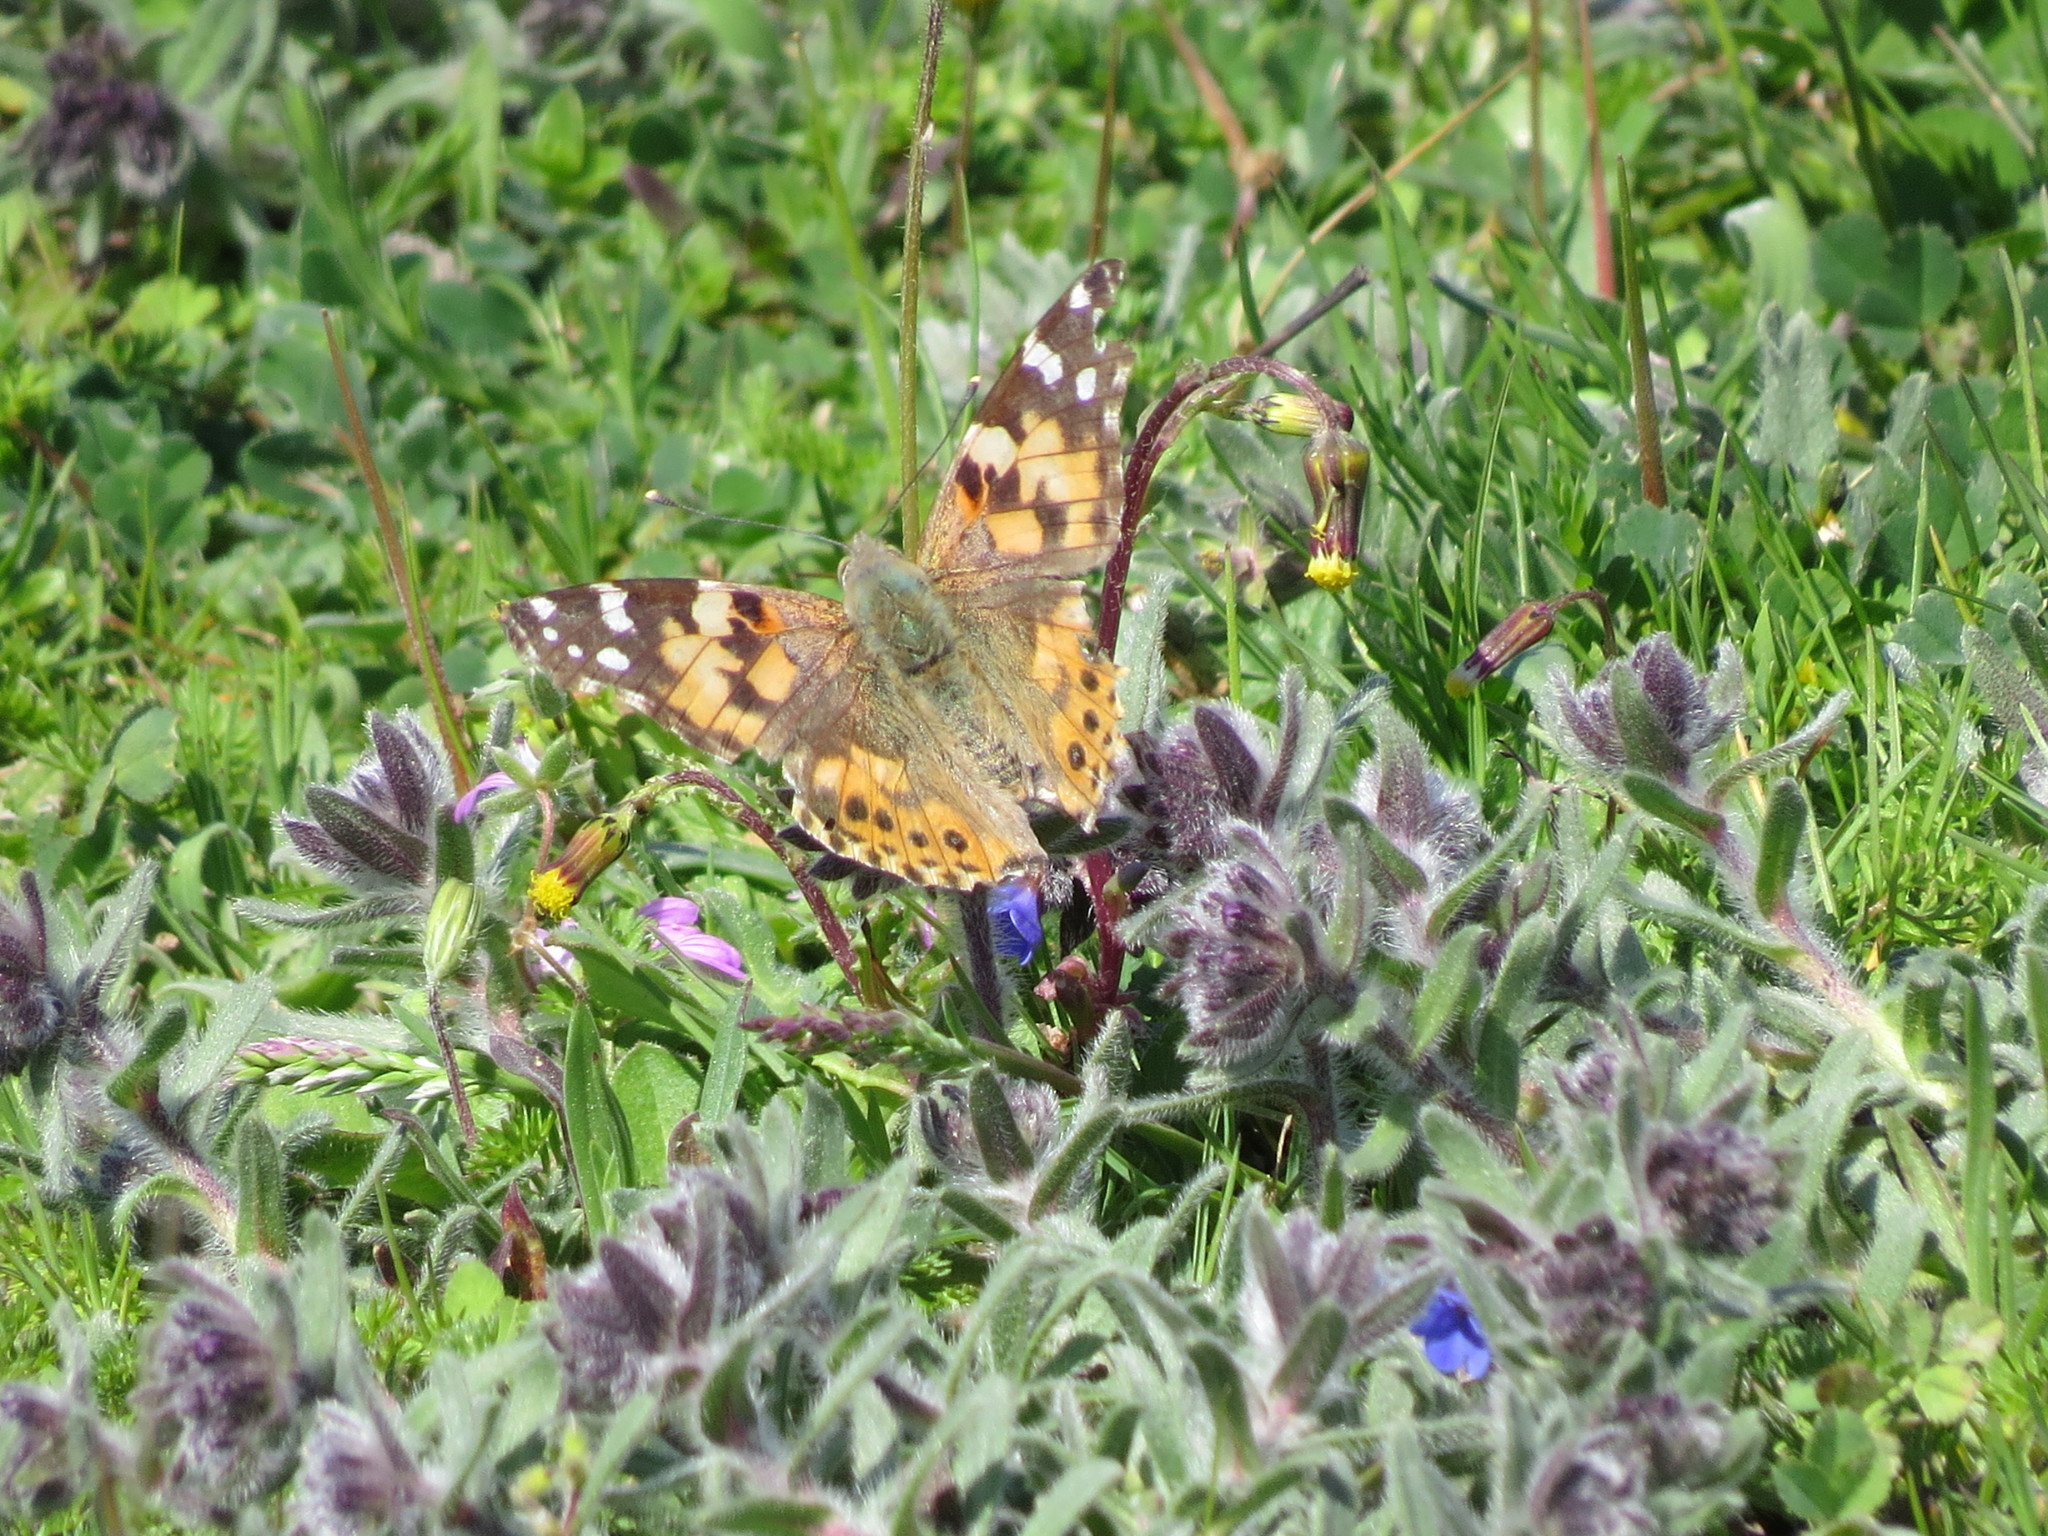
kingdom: Animalia
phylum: Arthropoda
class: Insecta
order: Lepidoptera
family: Nymphalidae
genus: Vanessa
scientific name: Vanessa cardui
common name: Painted lady
